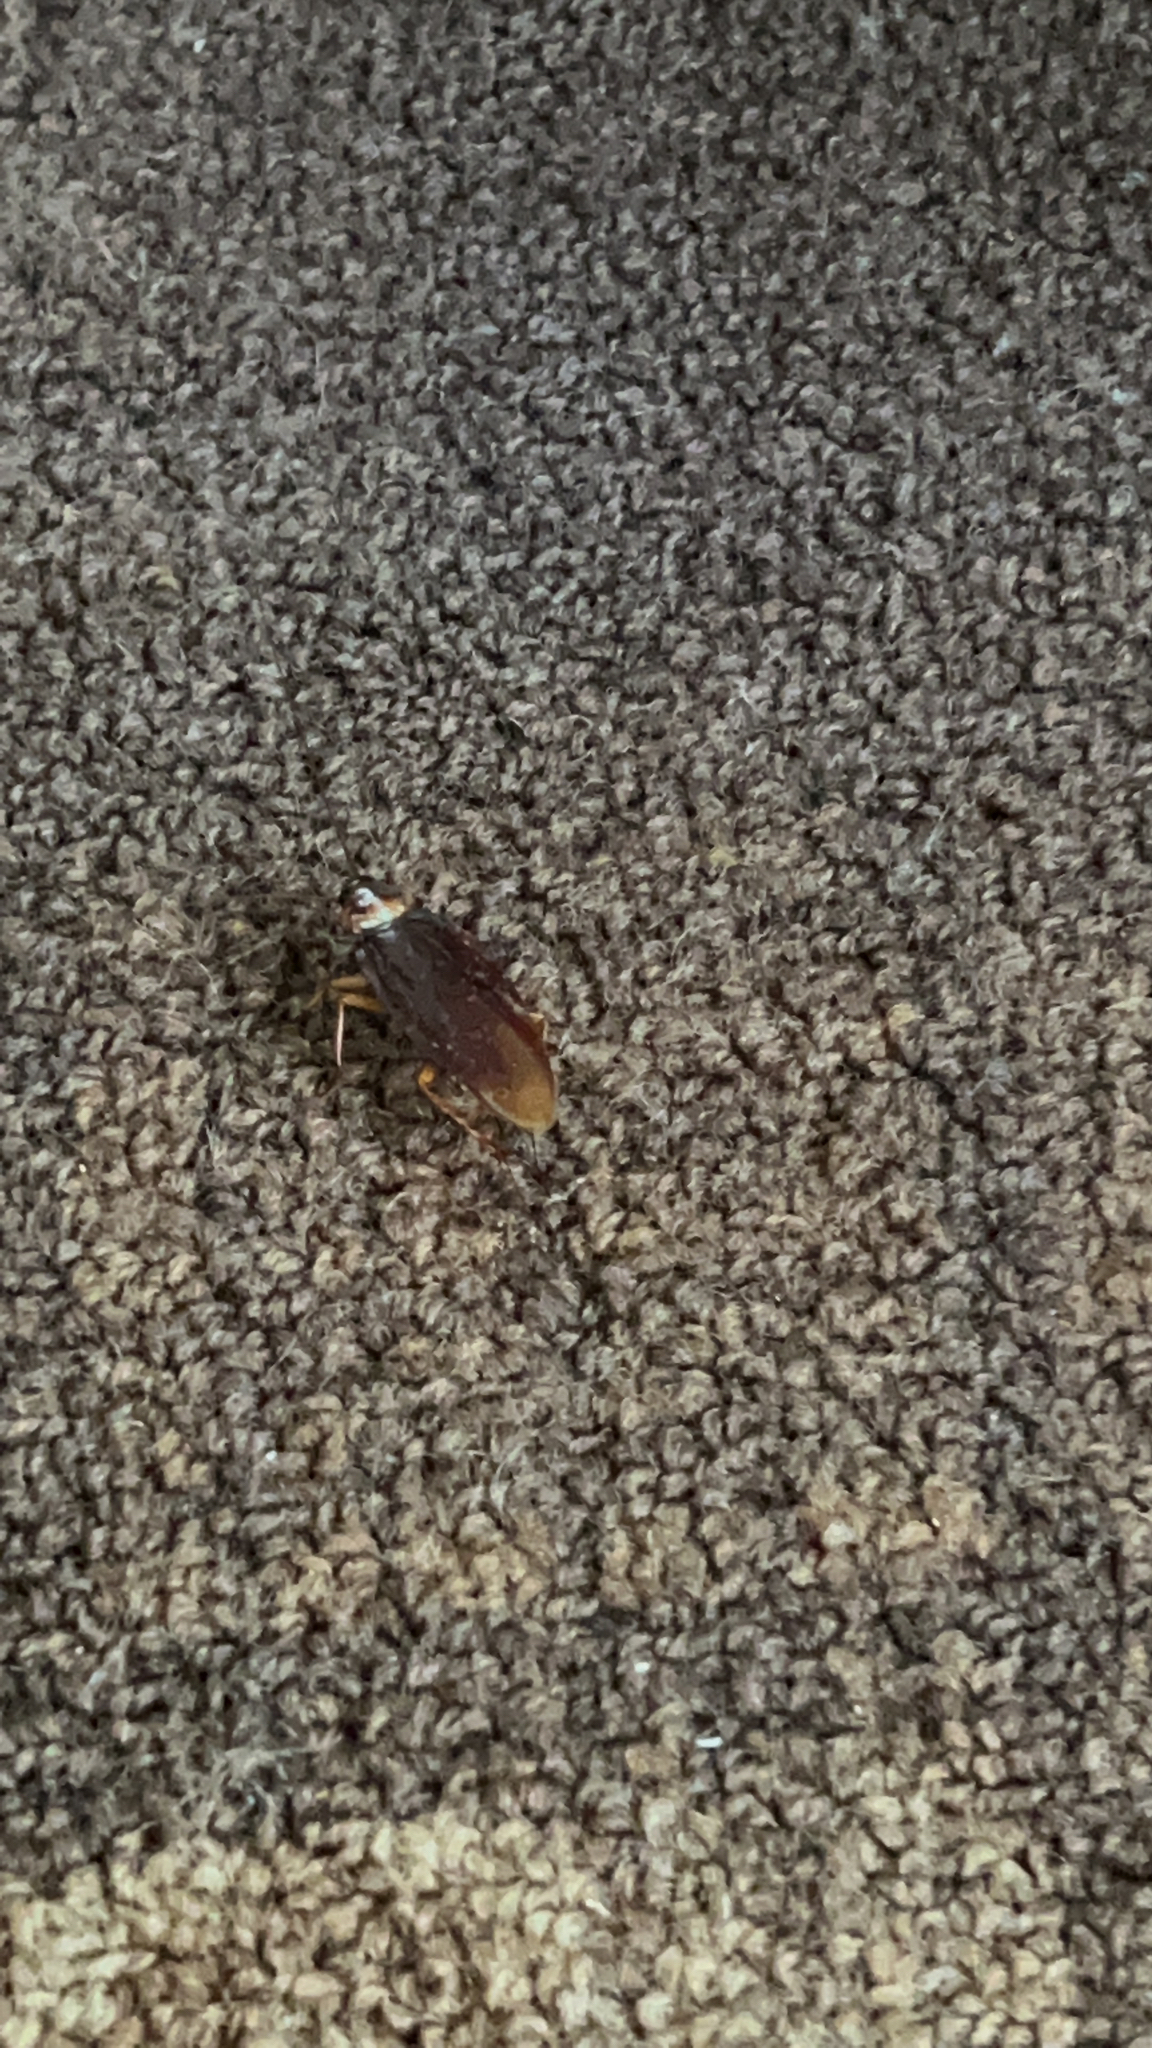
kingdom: Animalia
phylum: Arthropoda
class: Insecta
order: Blattodea
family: Blattidae
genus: Periplaneta
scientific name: Periplaneta americana
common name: American cockroach
